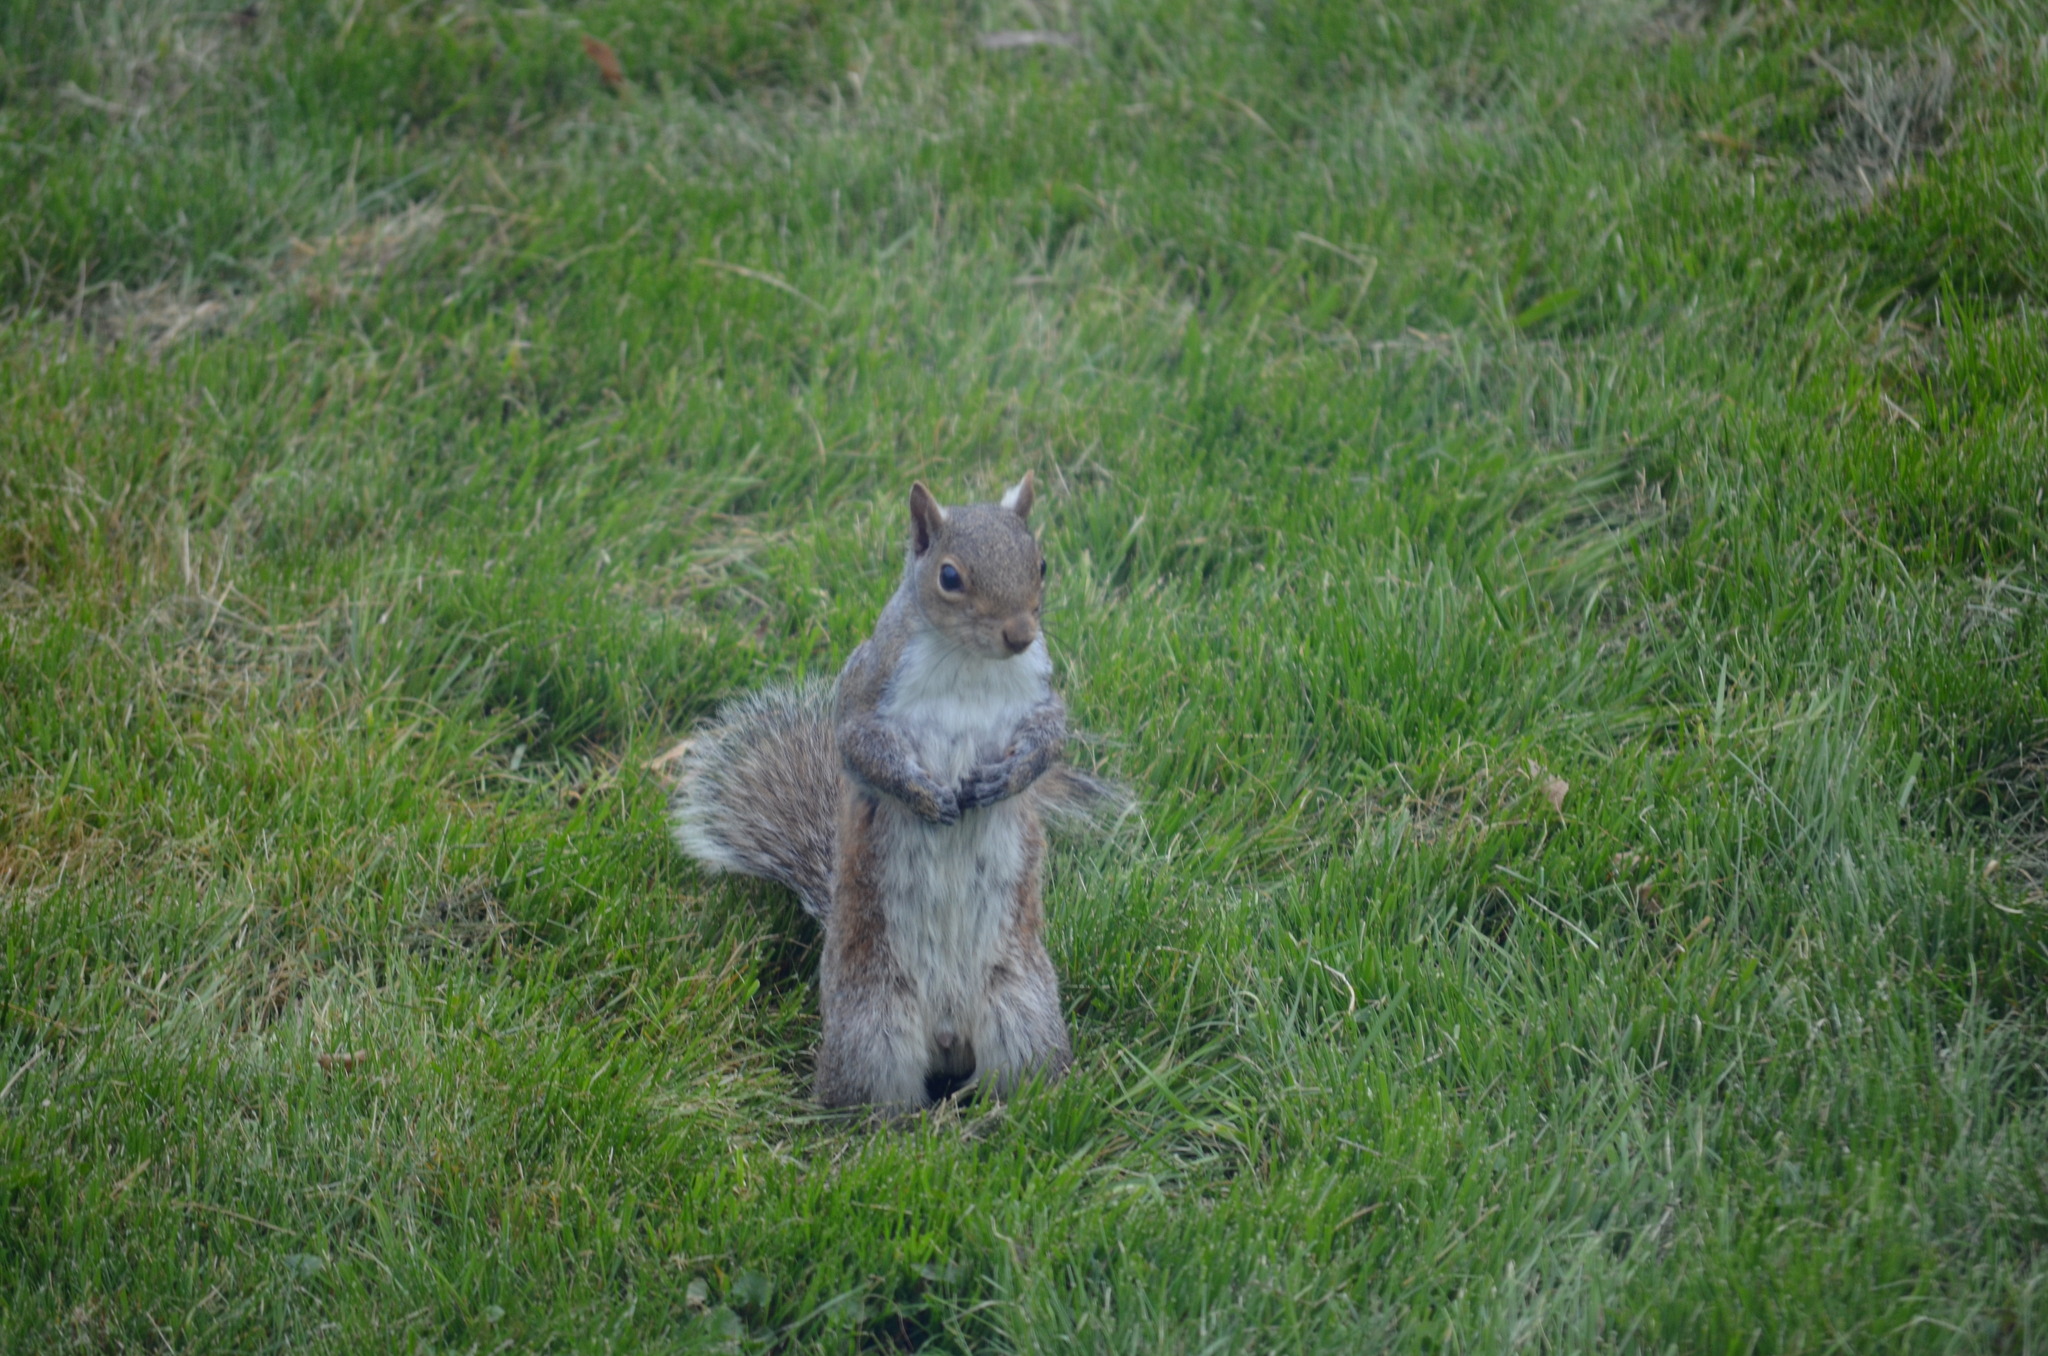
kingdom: Animalia
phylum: Chordata
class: Mammalia
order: Rodentia
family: Sciuridae
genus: Sciurus
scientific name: Sciurus carolinensis
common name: Eastern gray squirrel
